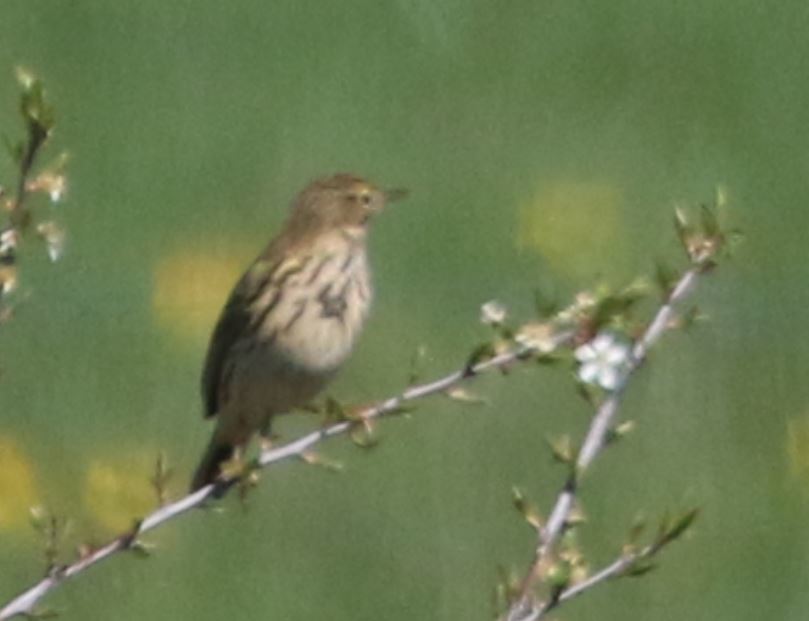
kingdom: Animalia
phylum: Chordata
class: Aves
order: Passeriformes
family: Motacillidae
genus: Anthus
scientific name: Anthus pratensis
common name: Meadow pipit
